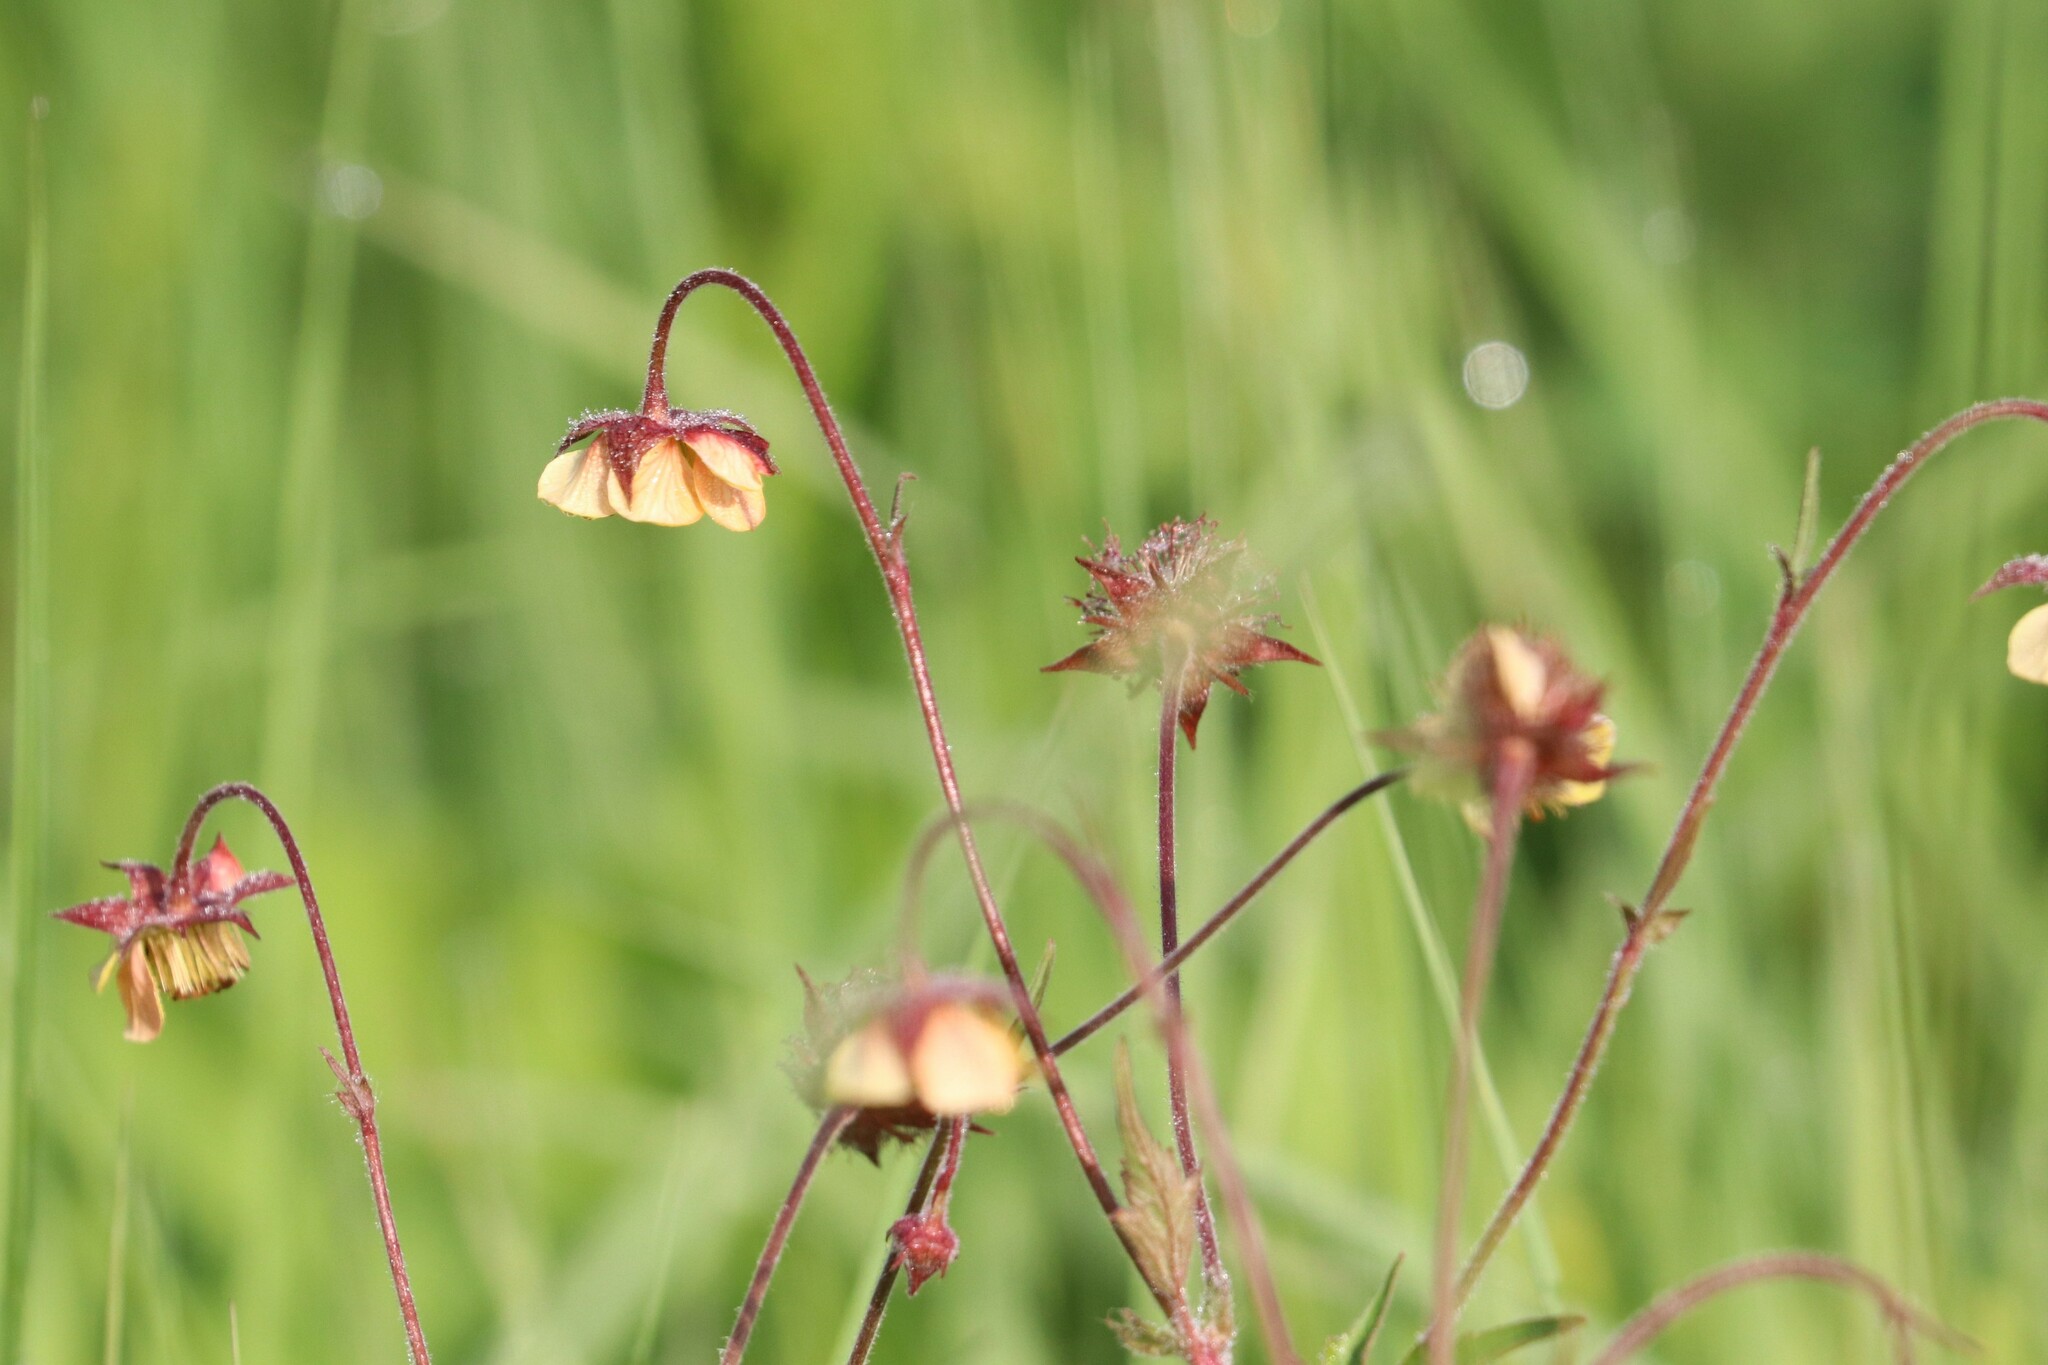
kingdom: Plantae
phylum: Tracheophyta
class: Magnoliopsida
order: Rosales
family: Rosaceae
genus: Geum
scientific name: Geum intermedium
